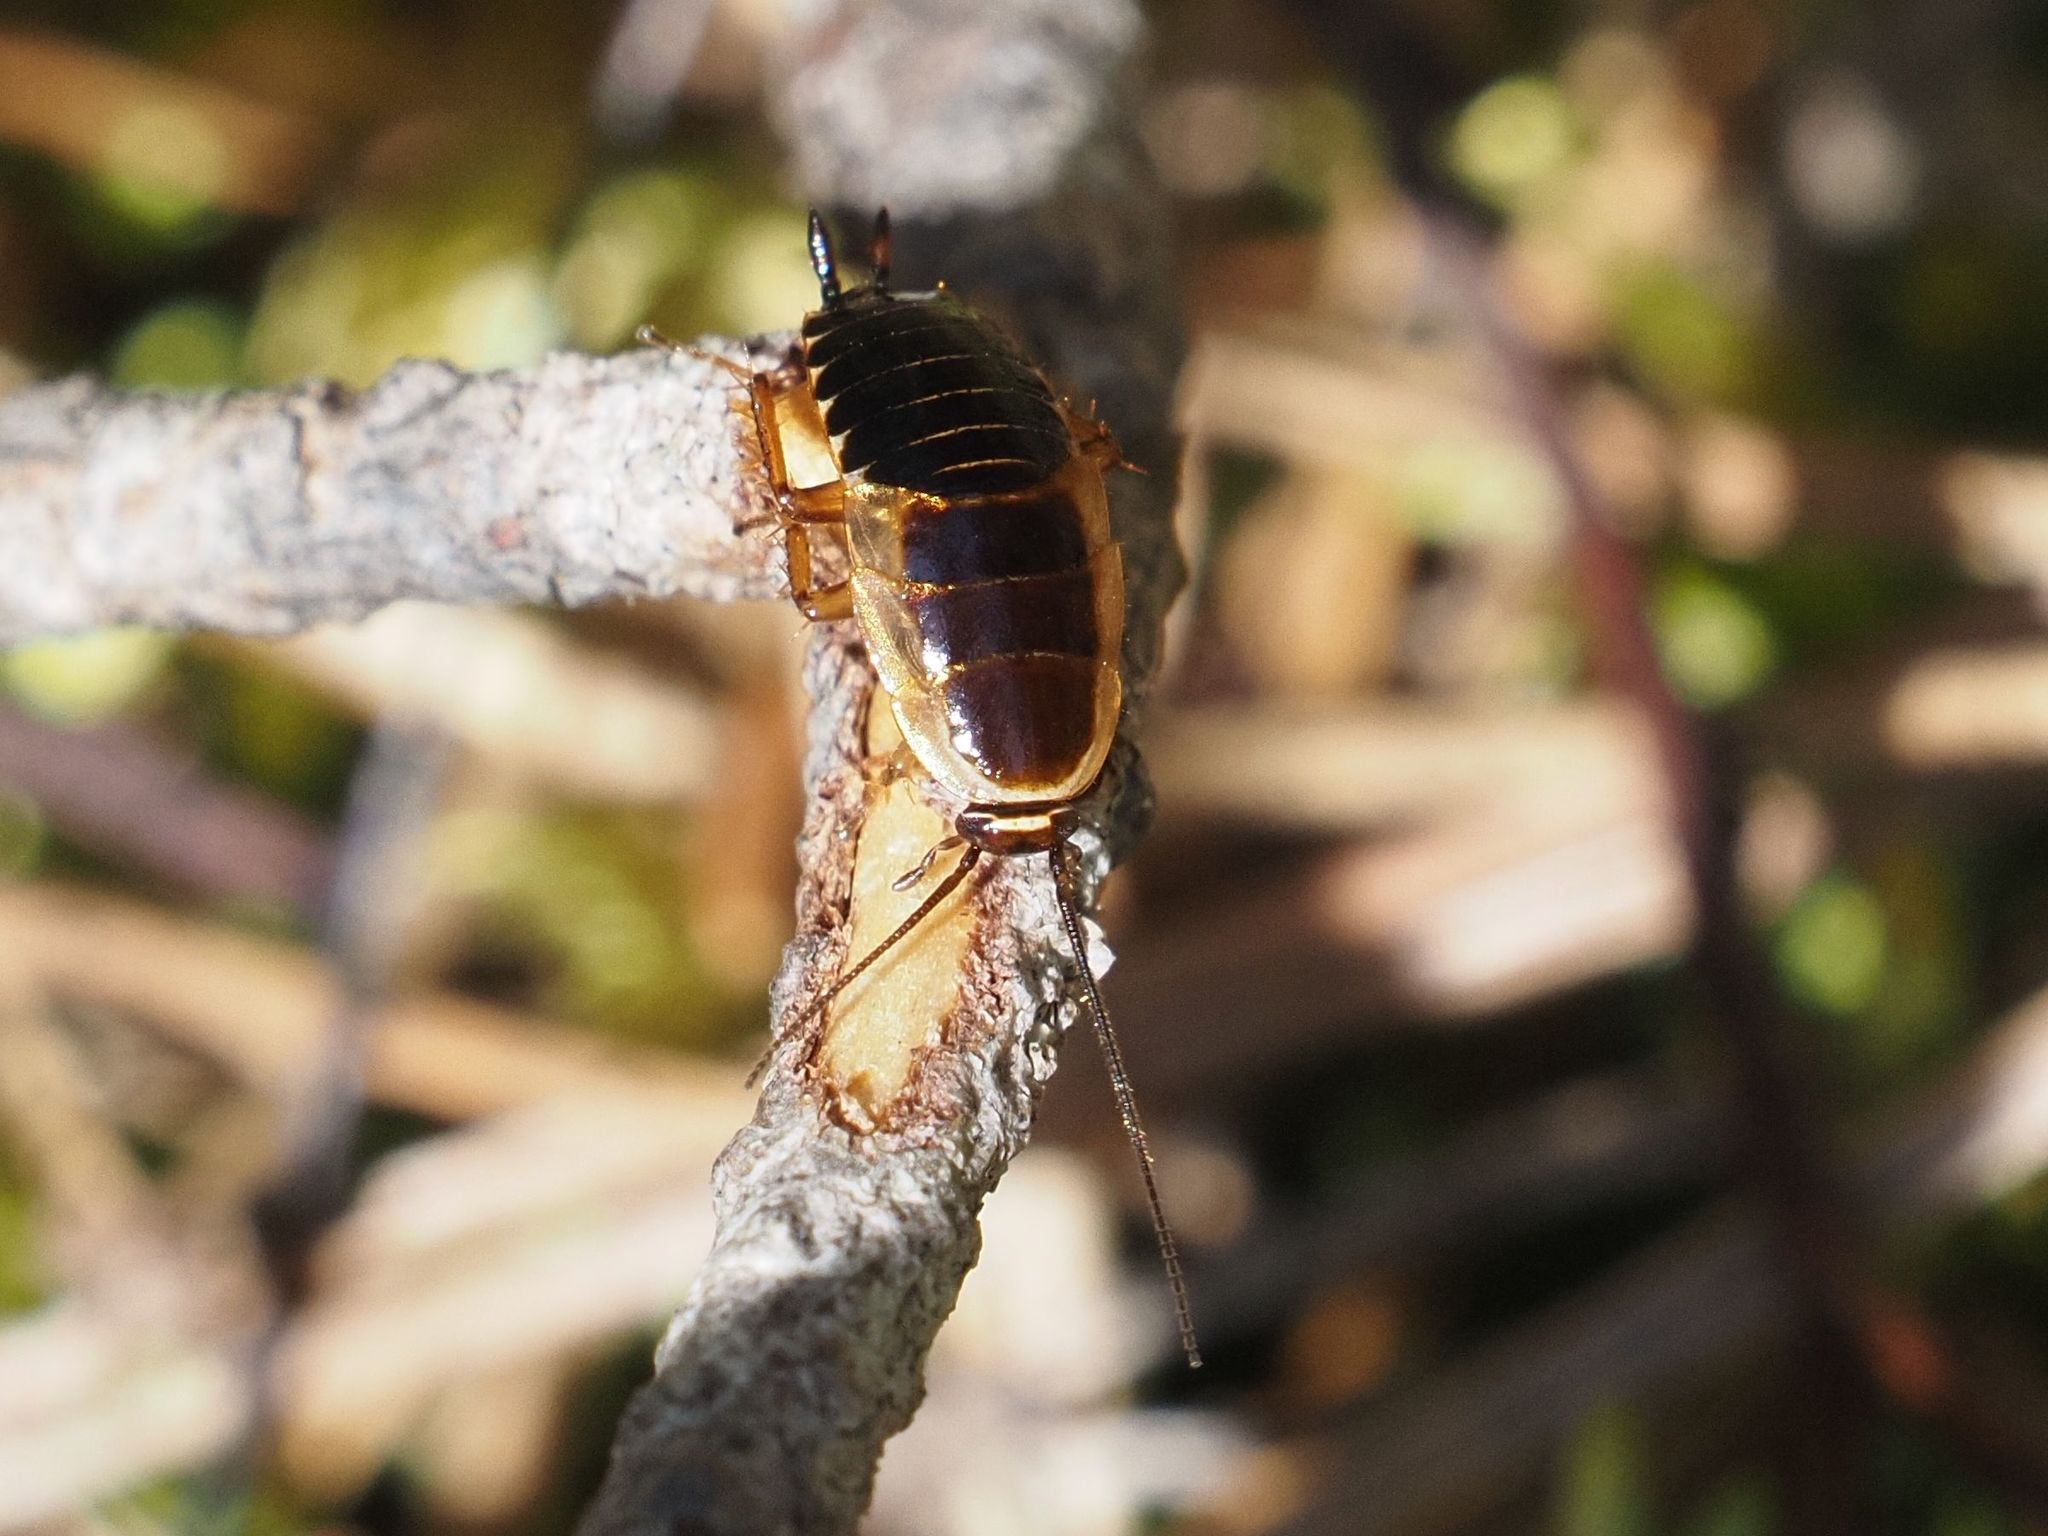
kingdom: Animalia
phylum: Arthropoda
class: Insecta
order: Blattodea
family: Ectobiidae
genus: Ectobius
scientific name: Ectobius sylvestris
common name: Forest cockroach
